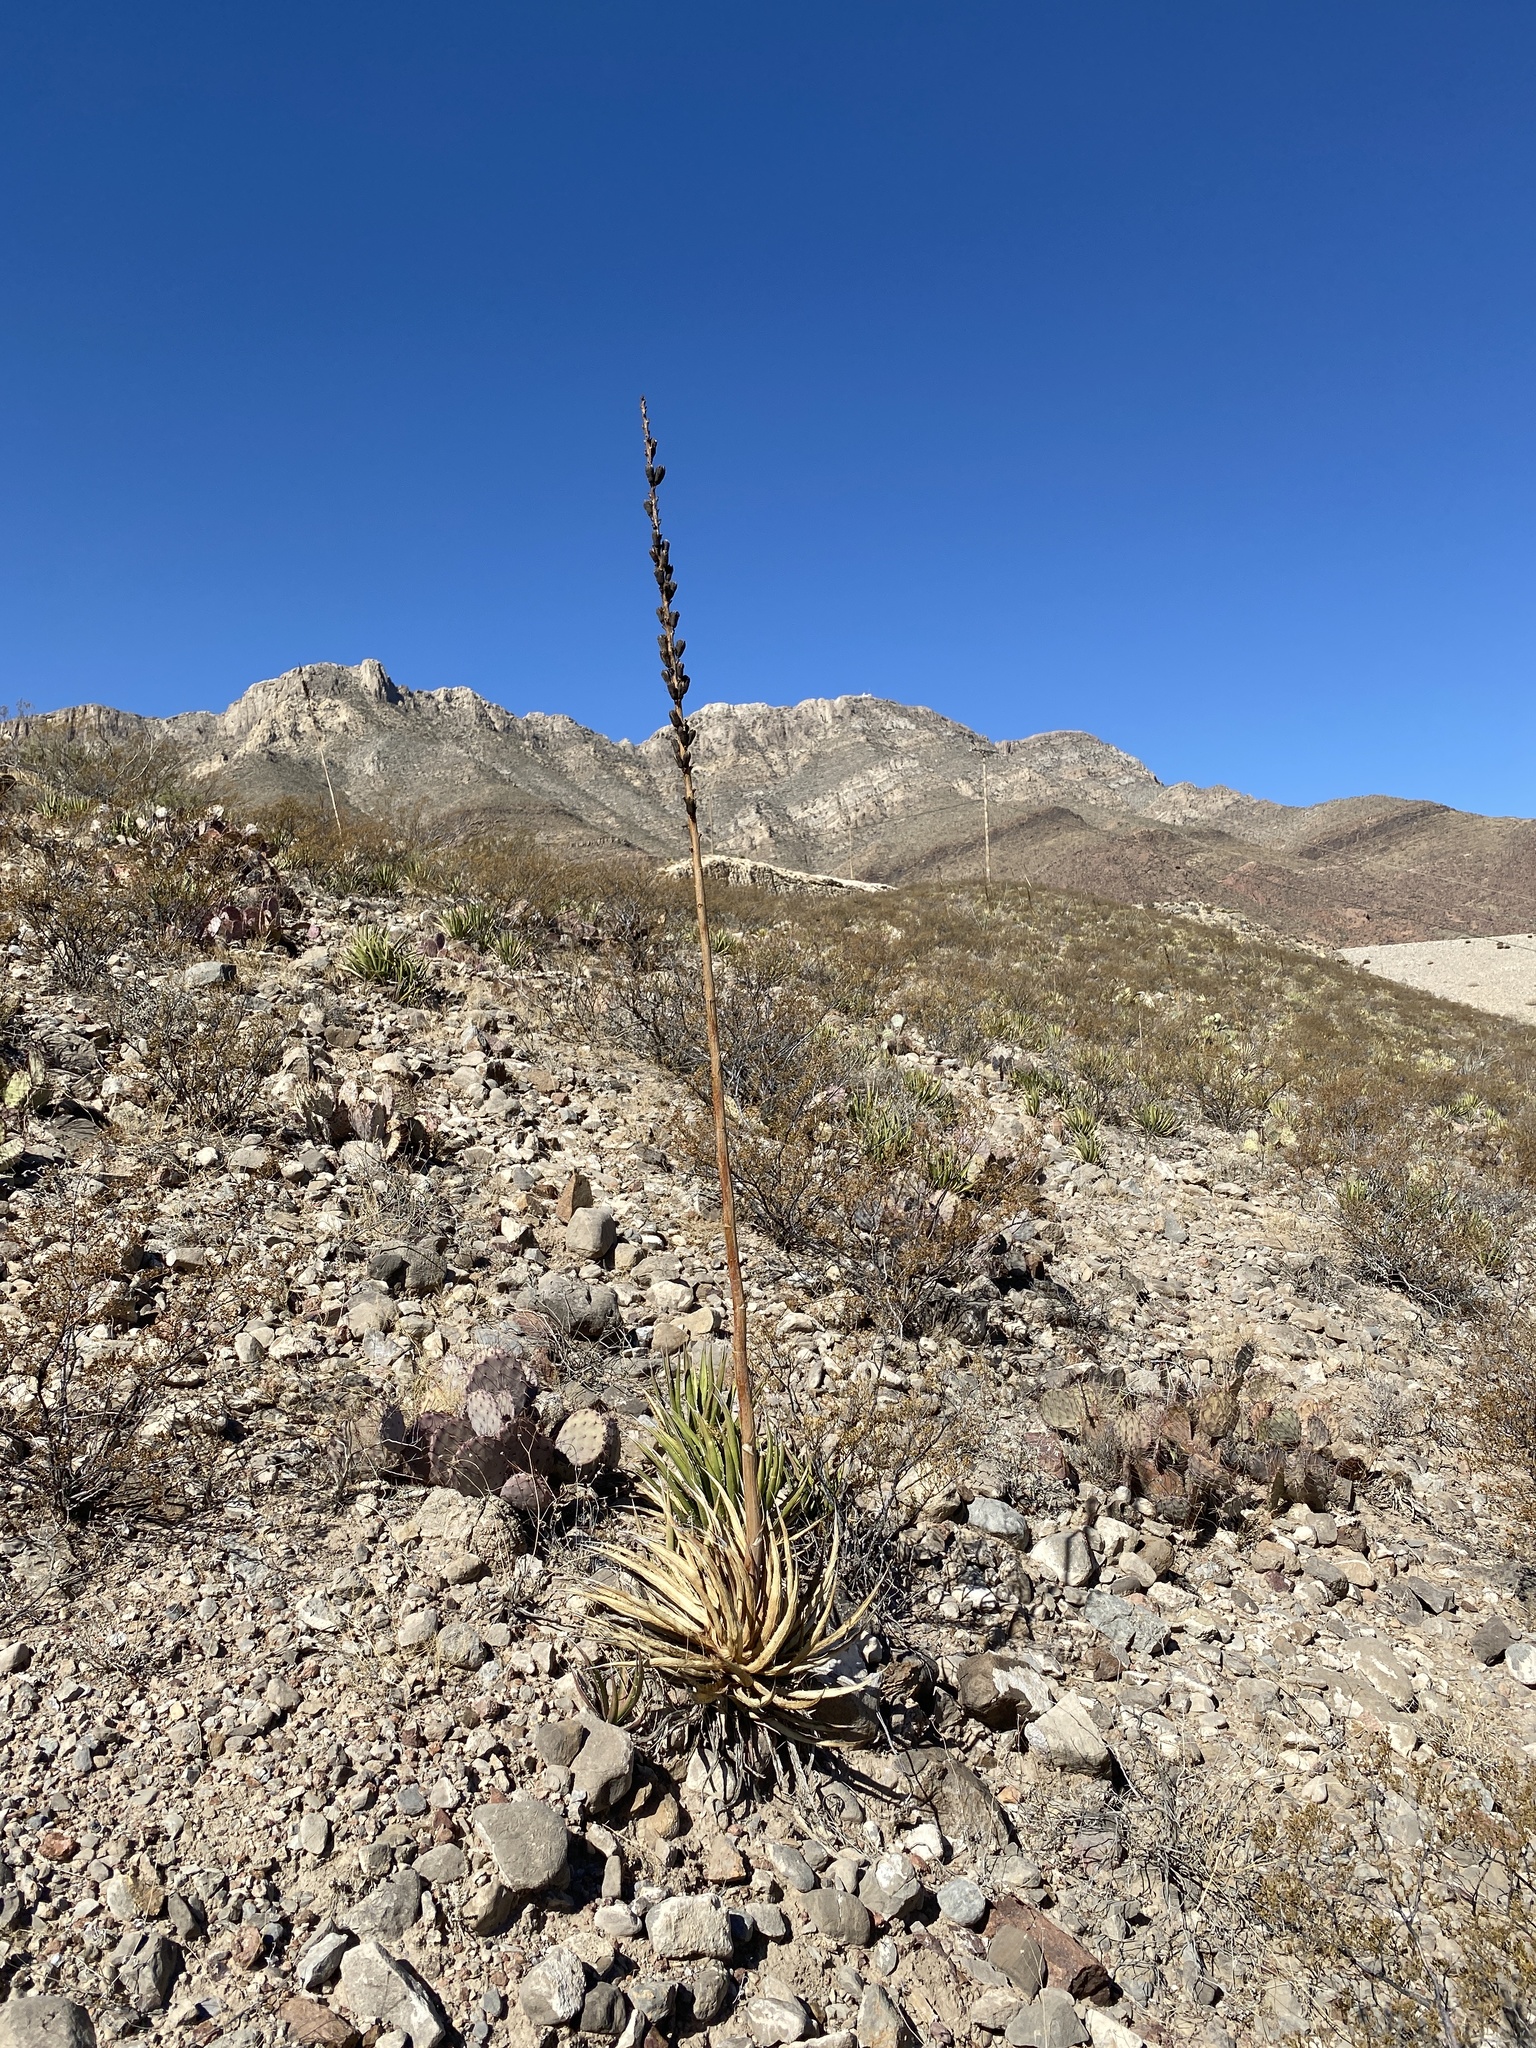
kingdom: Plantae
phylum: Tracheophyta
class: Liliopsida
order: Asparagales
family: Asparagaceae
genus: Agave
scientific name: Agave lechuguilla
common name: Lecheguilla agave
